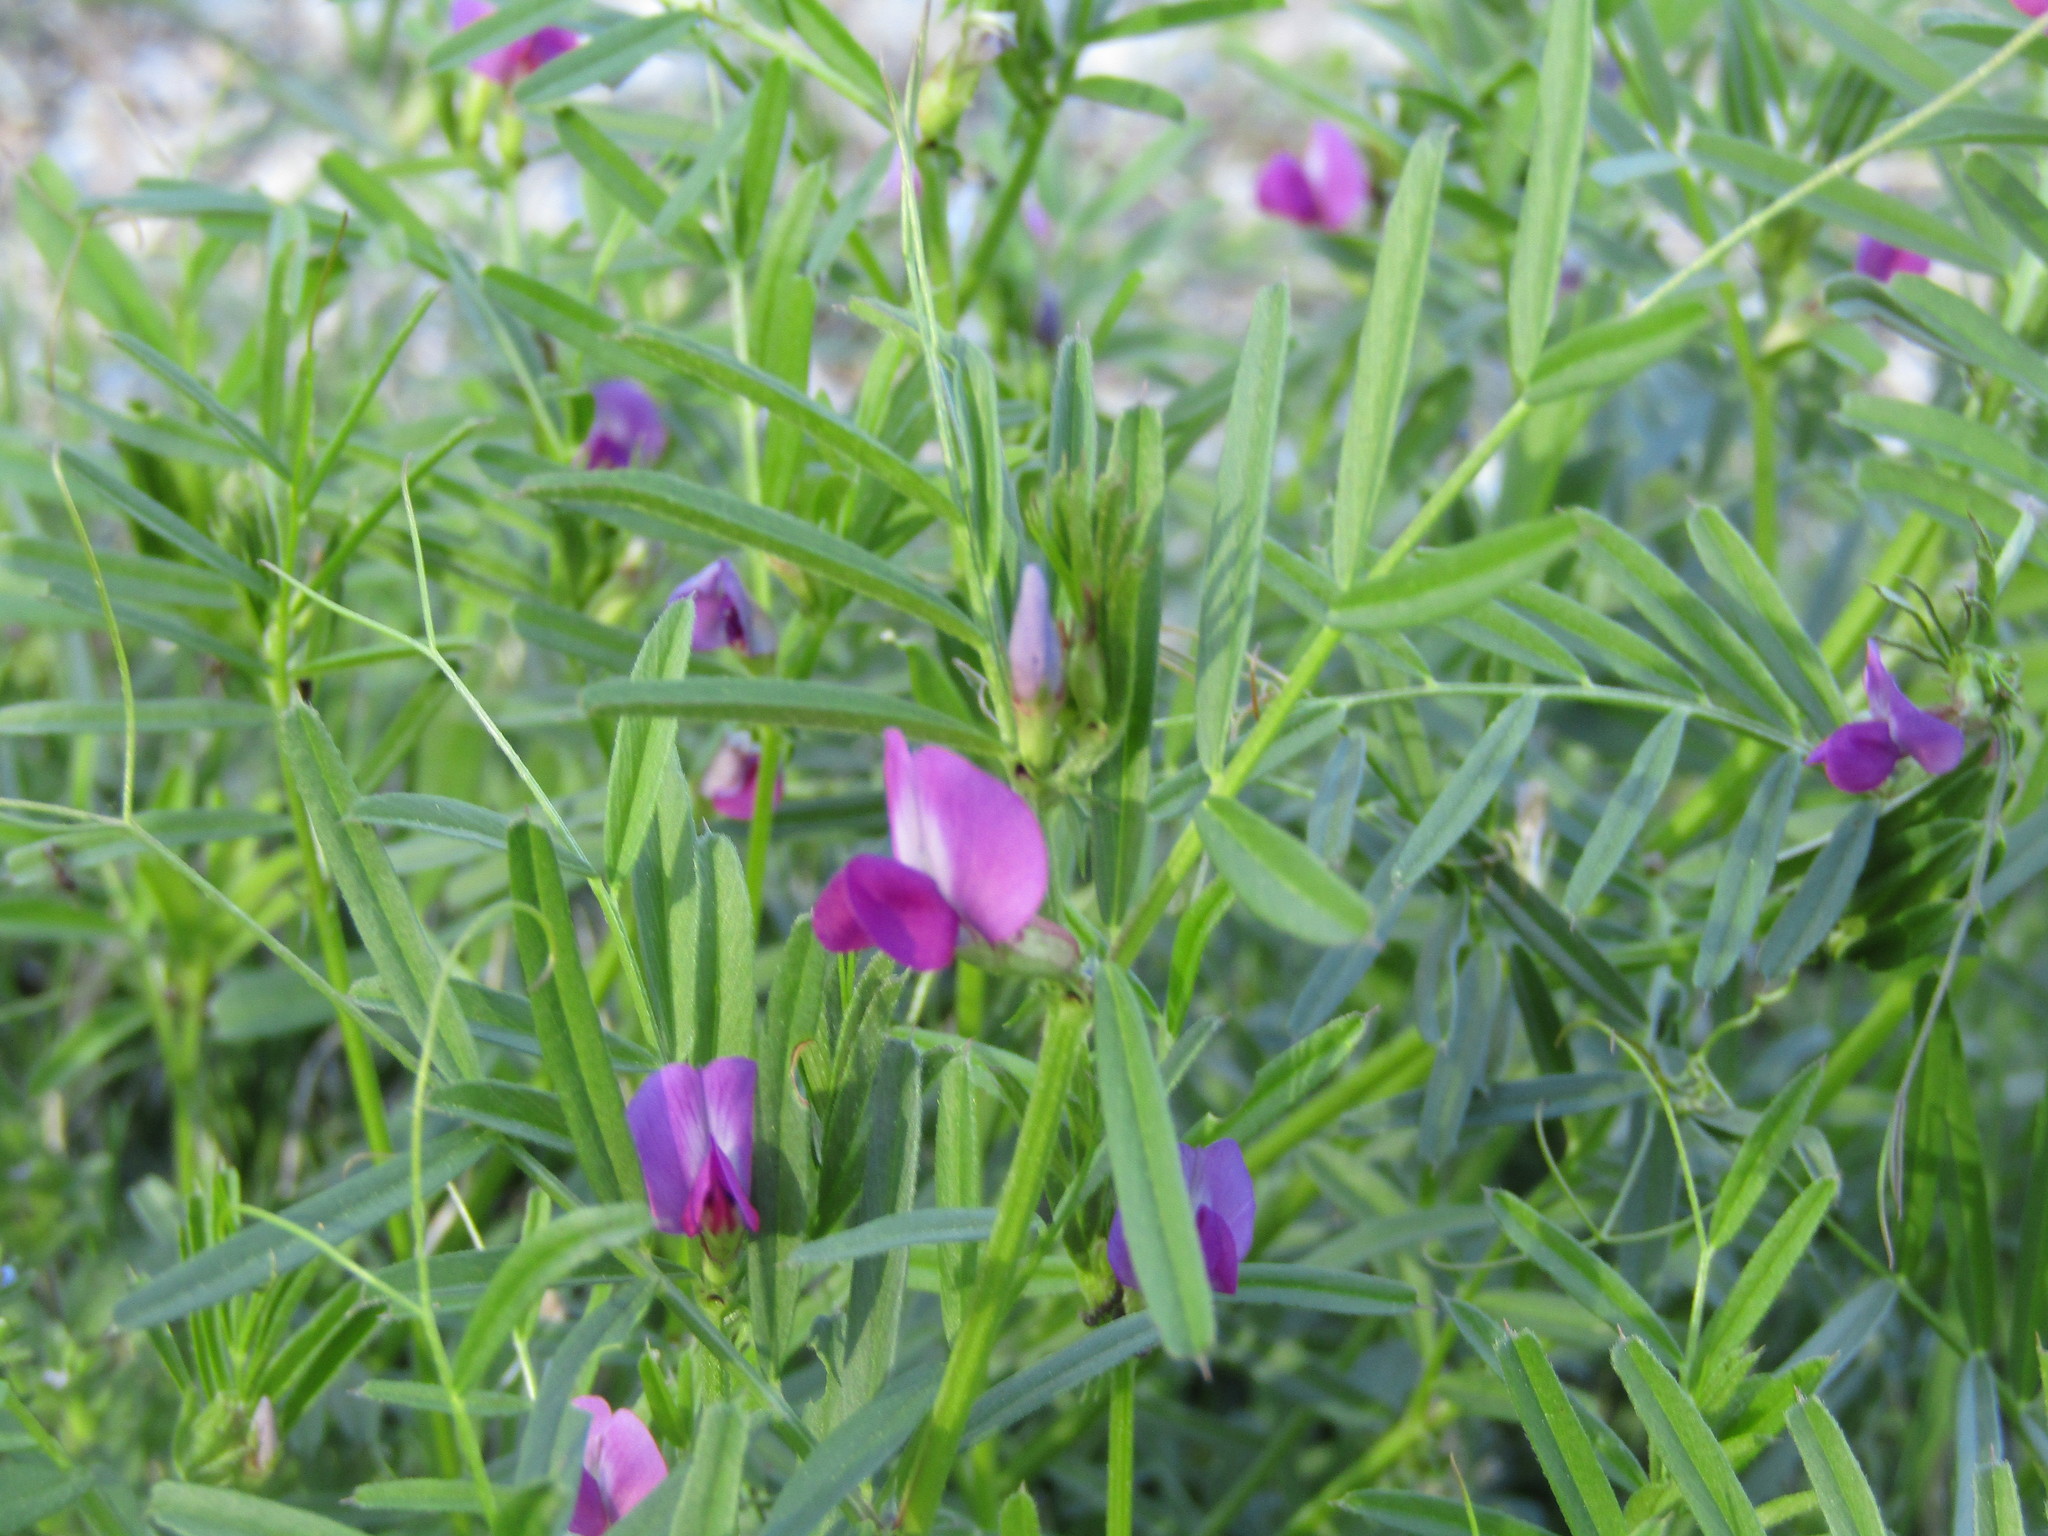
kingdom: Plantae
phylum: Tracheophyta
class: Magnoliopsida
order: Fabales
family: Fabaceae
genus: Vicia
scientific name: Vicia sativa
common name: Garden vetch
